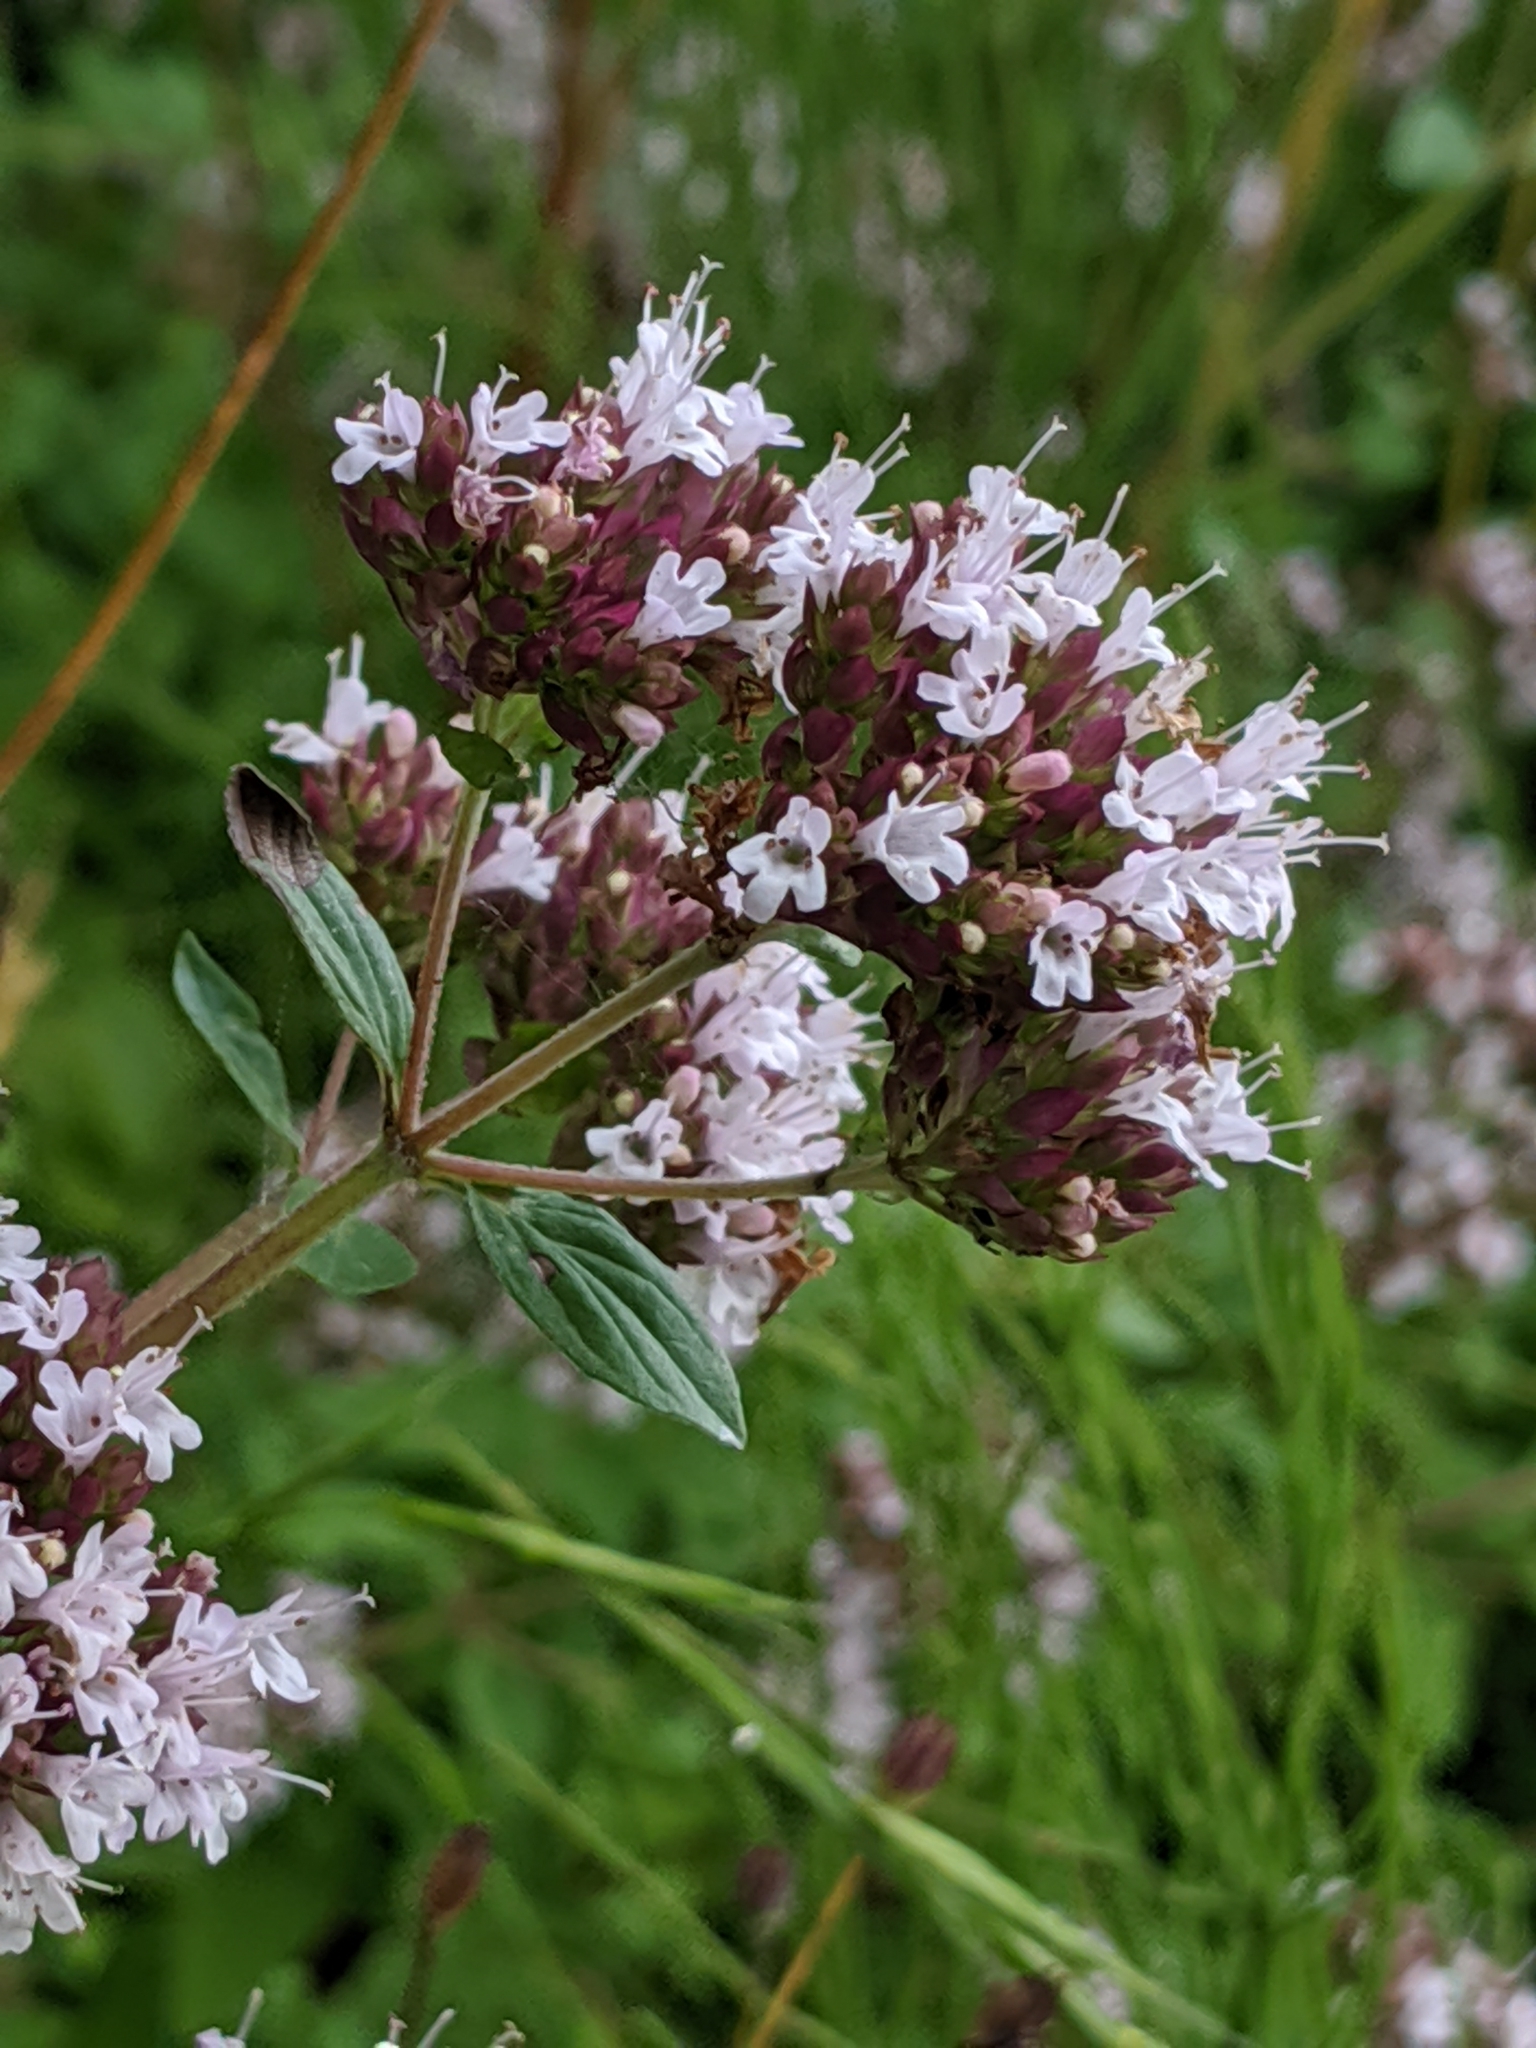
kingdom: Plantae
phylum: Tracheophyta
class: Magnoliopsida
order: Lamiales
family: Lamiaceae
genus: Origanum
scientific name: Origanum vulgare
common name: Wild marjoram
